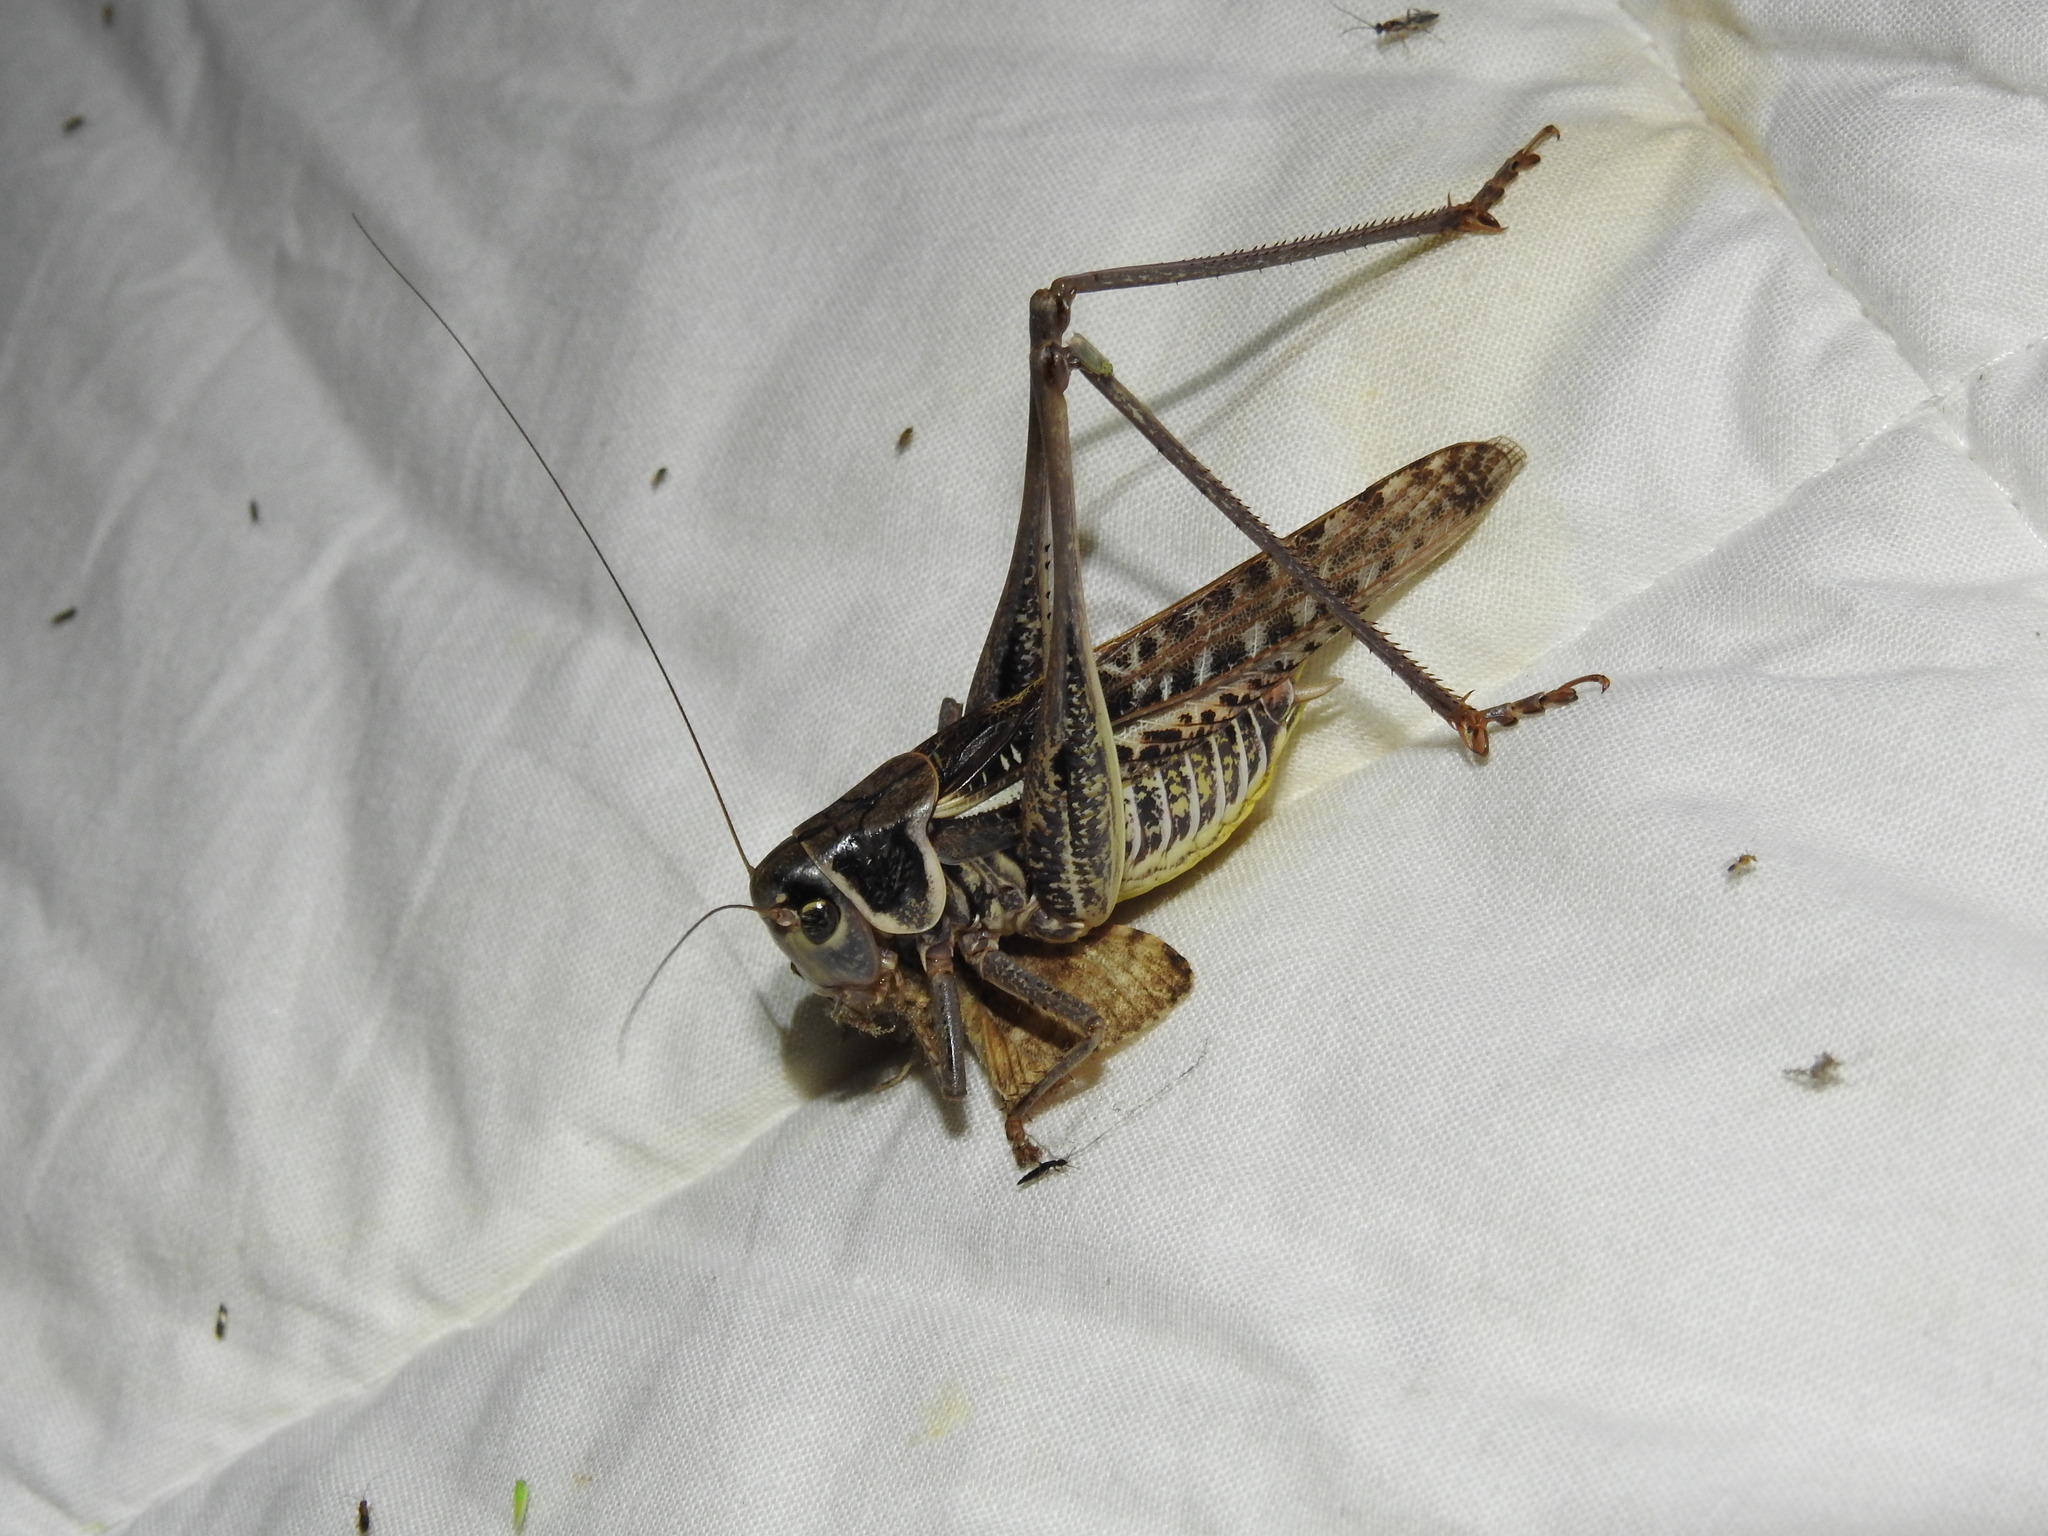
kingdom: Animalia
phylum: Arthropoda
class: Insecta
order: Orthoptera
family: Tettigoniidae
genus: Decticus
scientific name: Decticus albifrons
